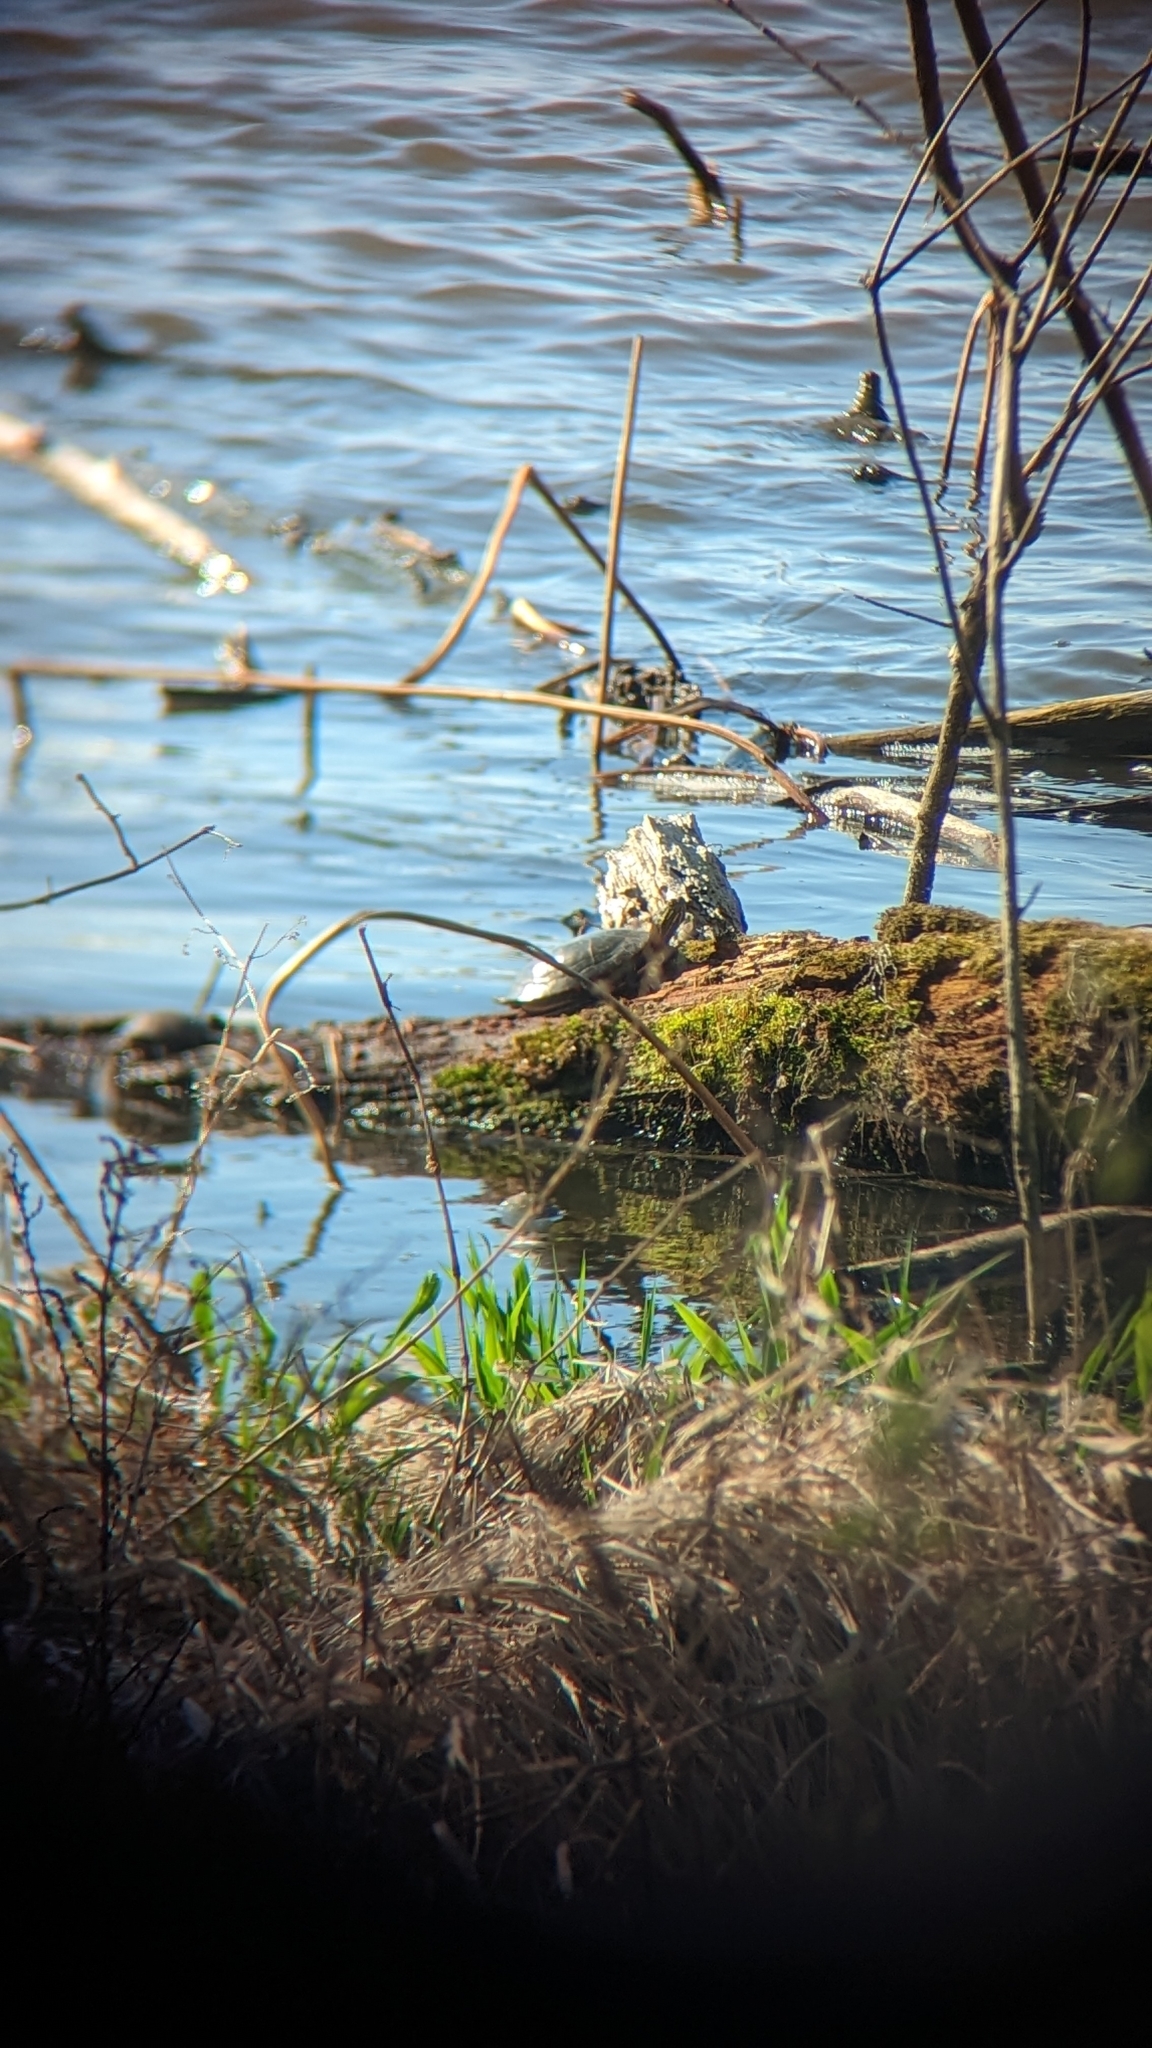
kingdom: Animalia
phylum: Chordata
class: Testudines
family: Emydidae
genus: Chrysemys
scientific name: Chrysemys picta
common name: Painted turtle
